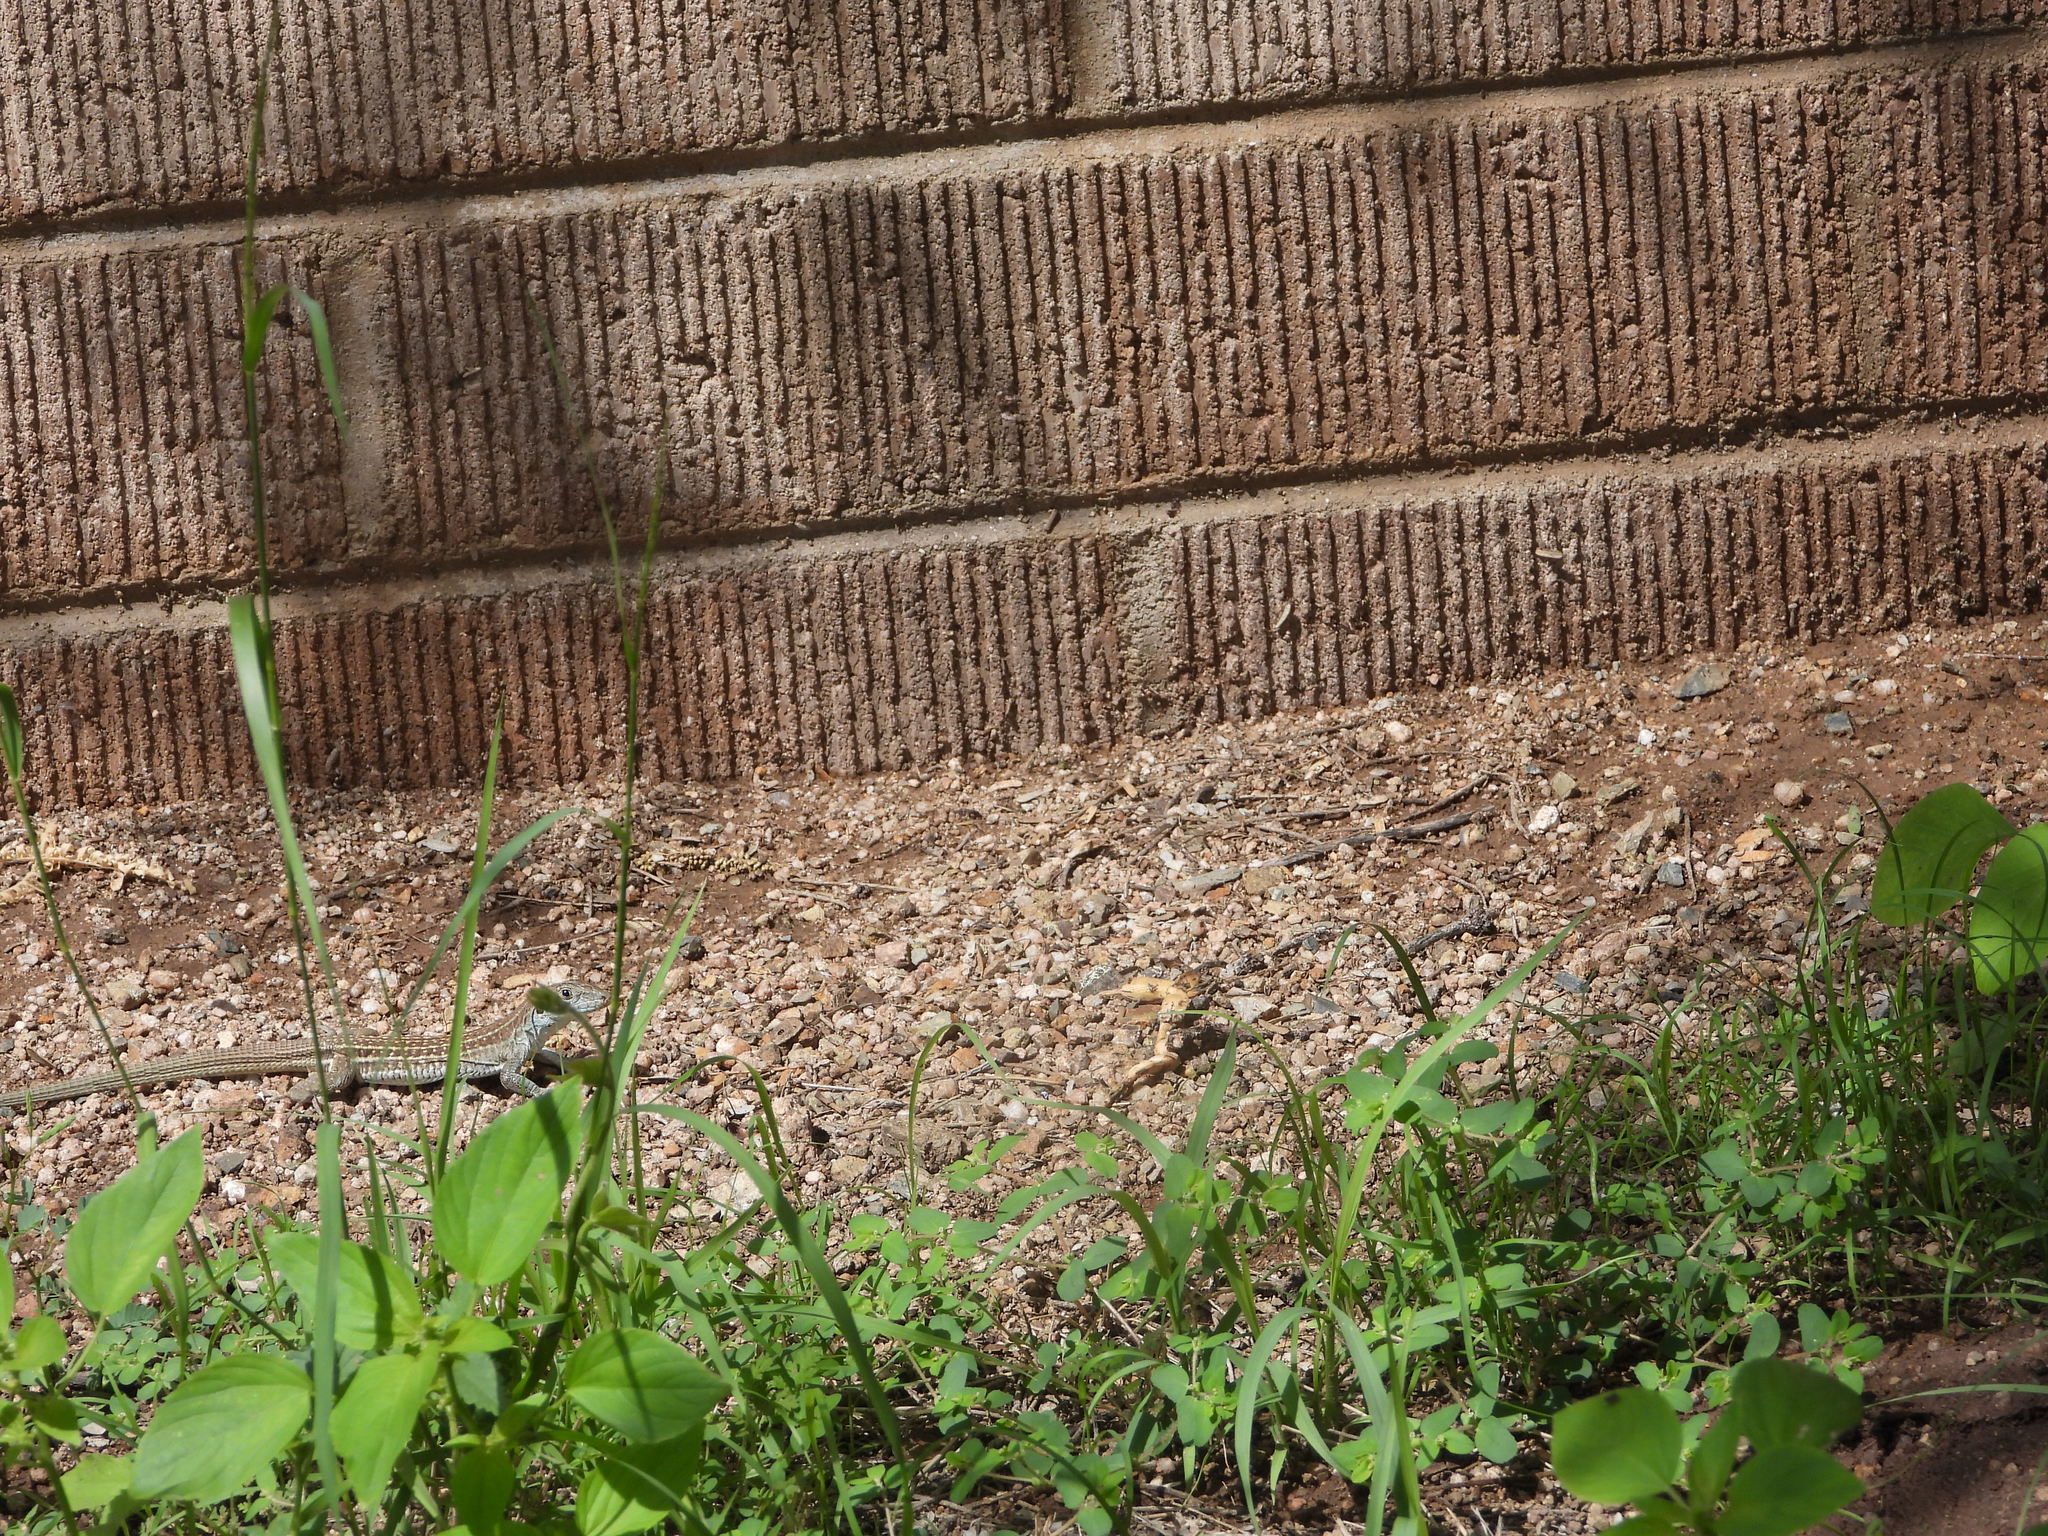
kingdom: Animalia
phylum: Chordata
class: Squamata
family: Teiidae
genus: Aspidoscelis
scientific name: Aspidoscelis sonorae
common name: Sonoran spotted whiptail
